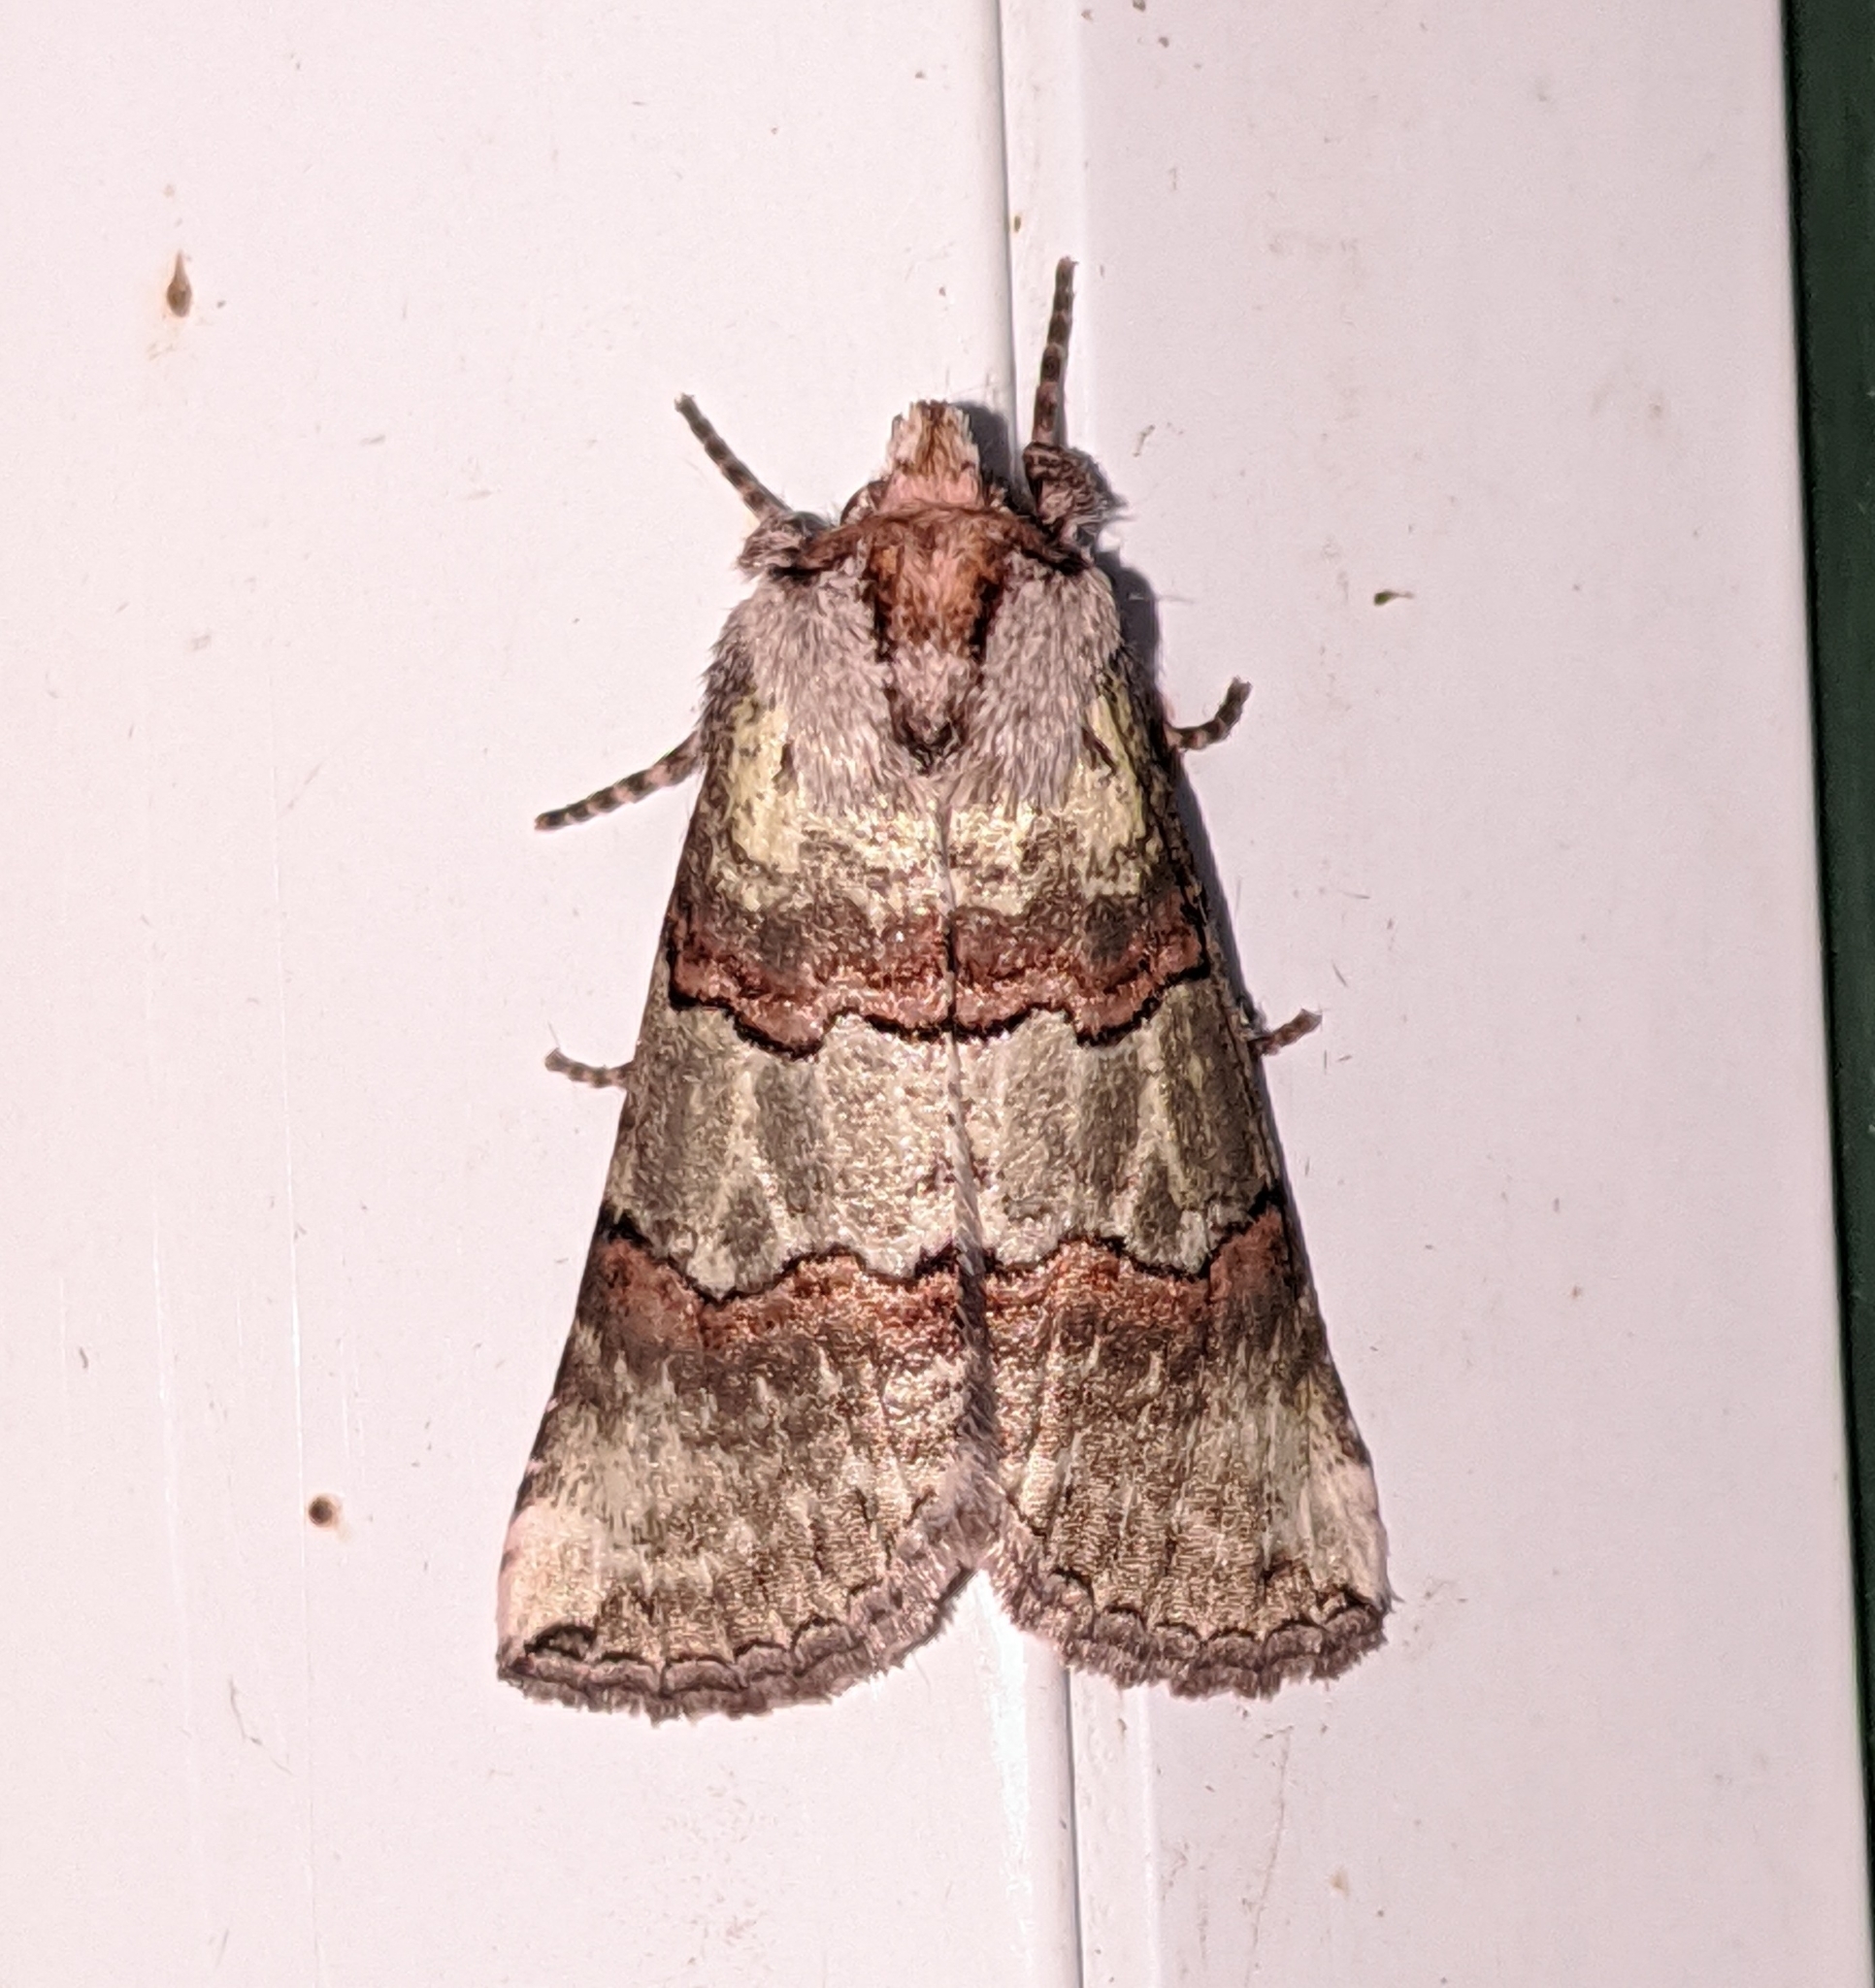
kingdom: Animalia
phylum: Arthropoda
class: Insecta
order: Lepidoptera
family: Drepanidae
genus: Ceranemota
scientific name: Ceranemota fasciata
